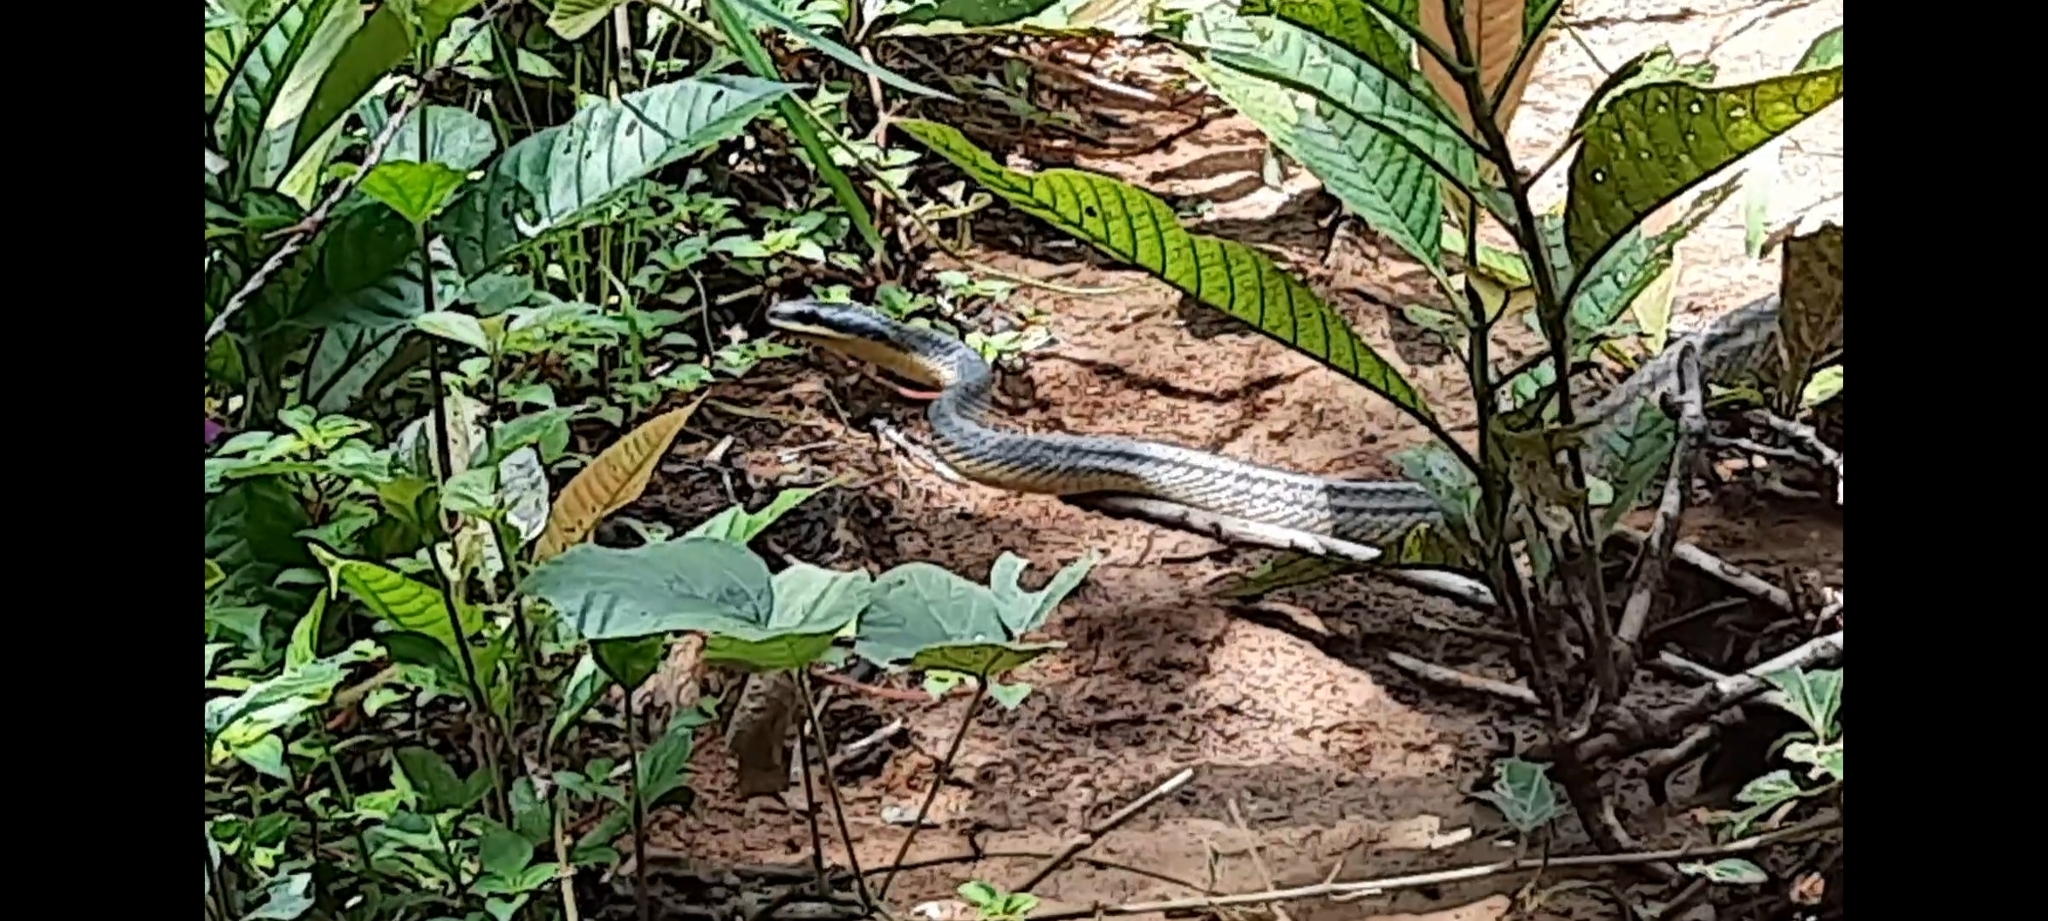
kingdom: Animalia
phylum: Chordata
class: Squamata
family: Colubridae
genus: Phrynonax
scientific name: Phrynonax poecilonotus
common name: Puffing snake
